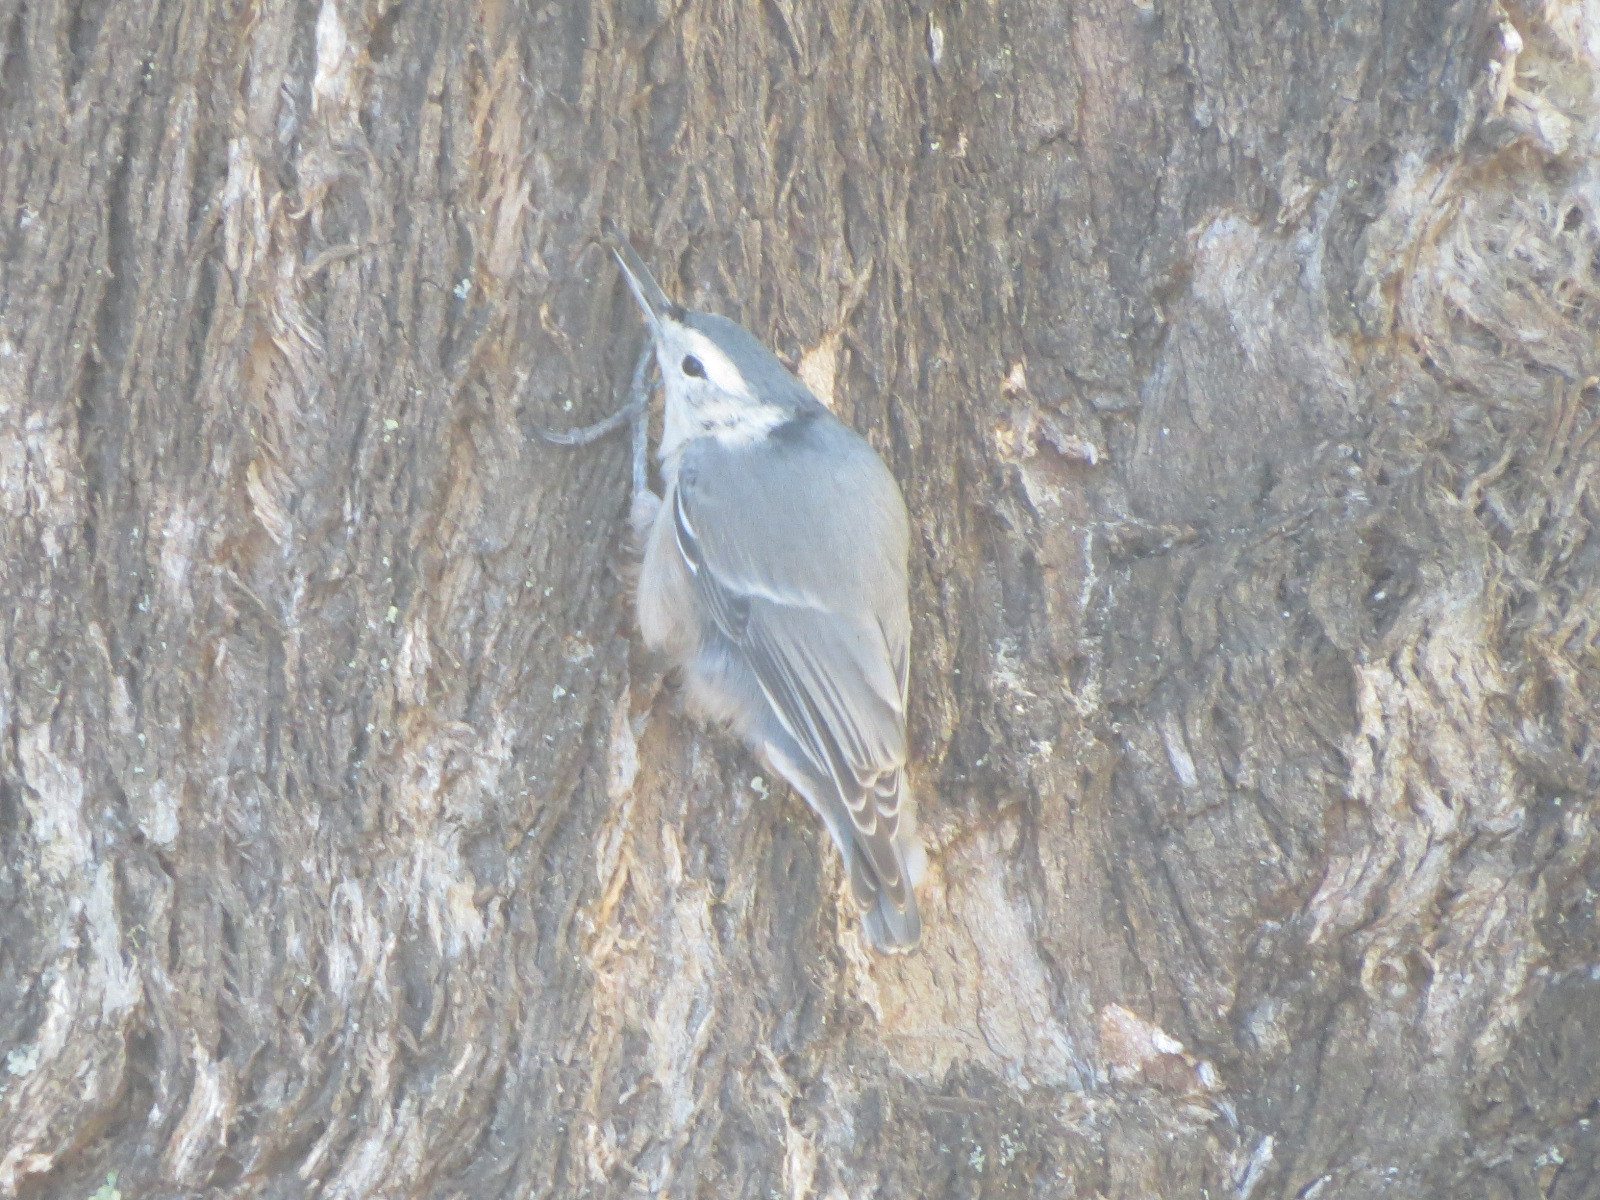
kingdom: Animalia
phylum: Chordata
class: Aves
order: Passeriformes
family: Sittidae
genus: Sitta
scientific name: Sitta carolinensis
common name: White-breasted nuthatch
